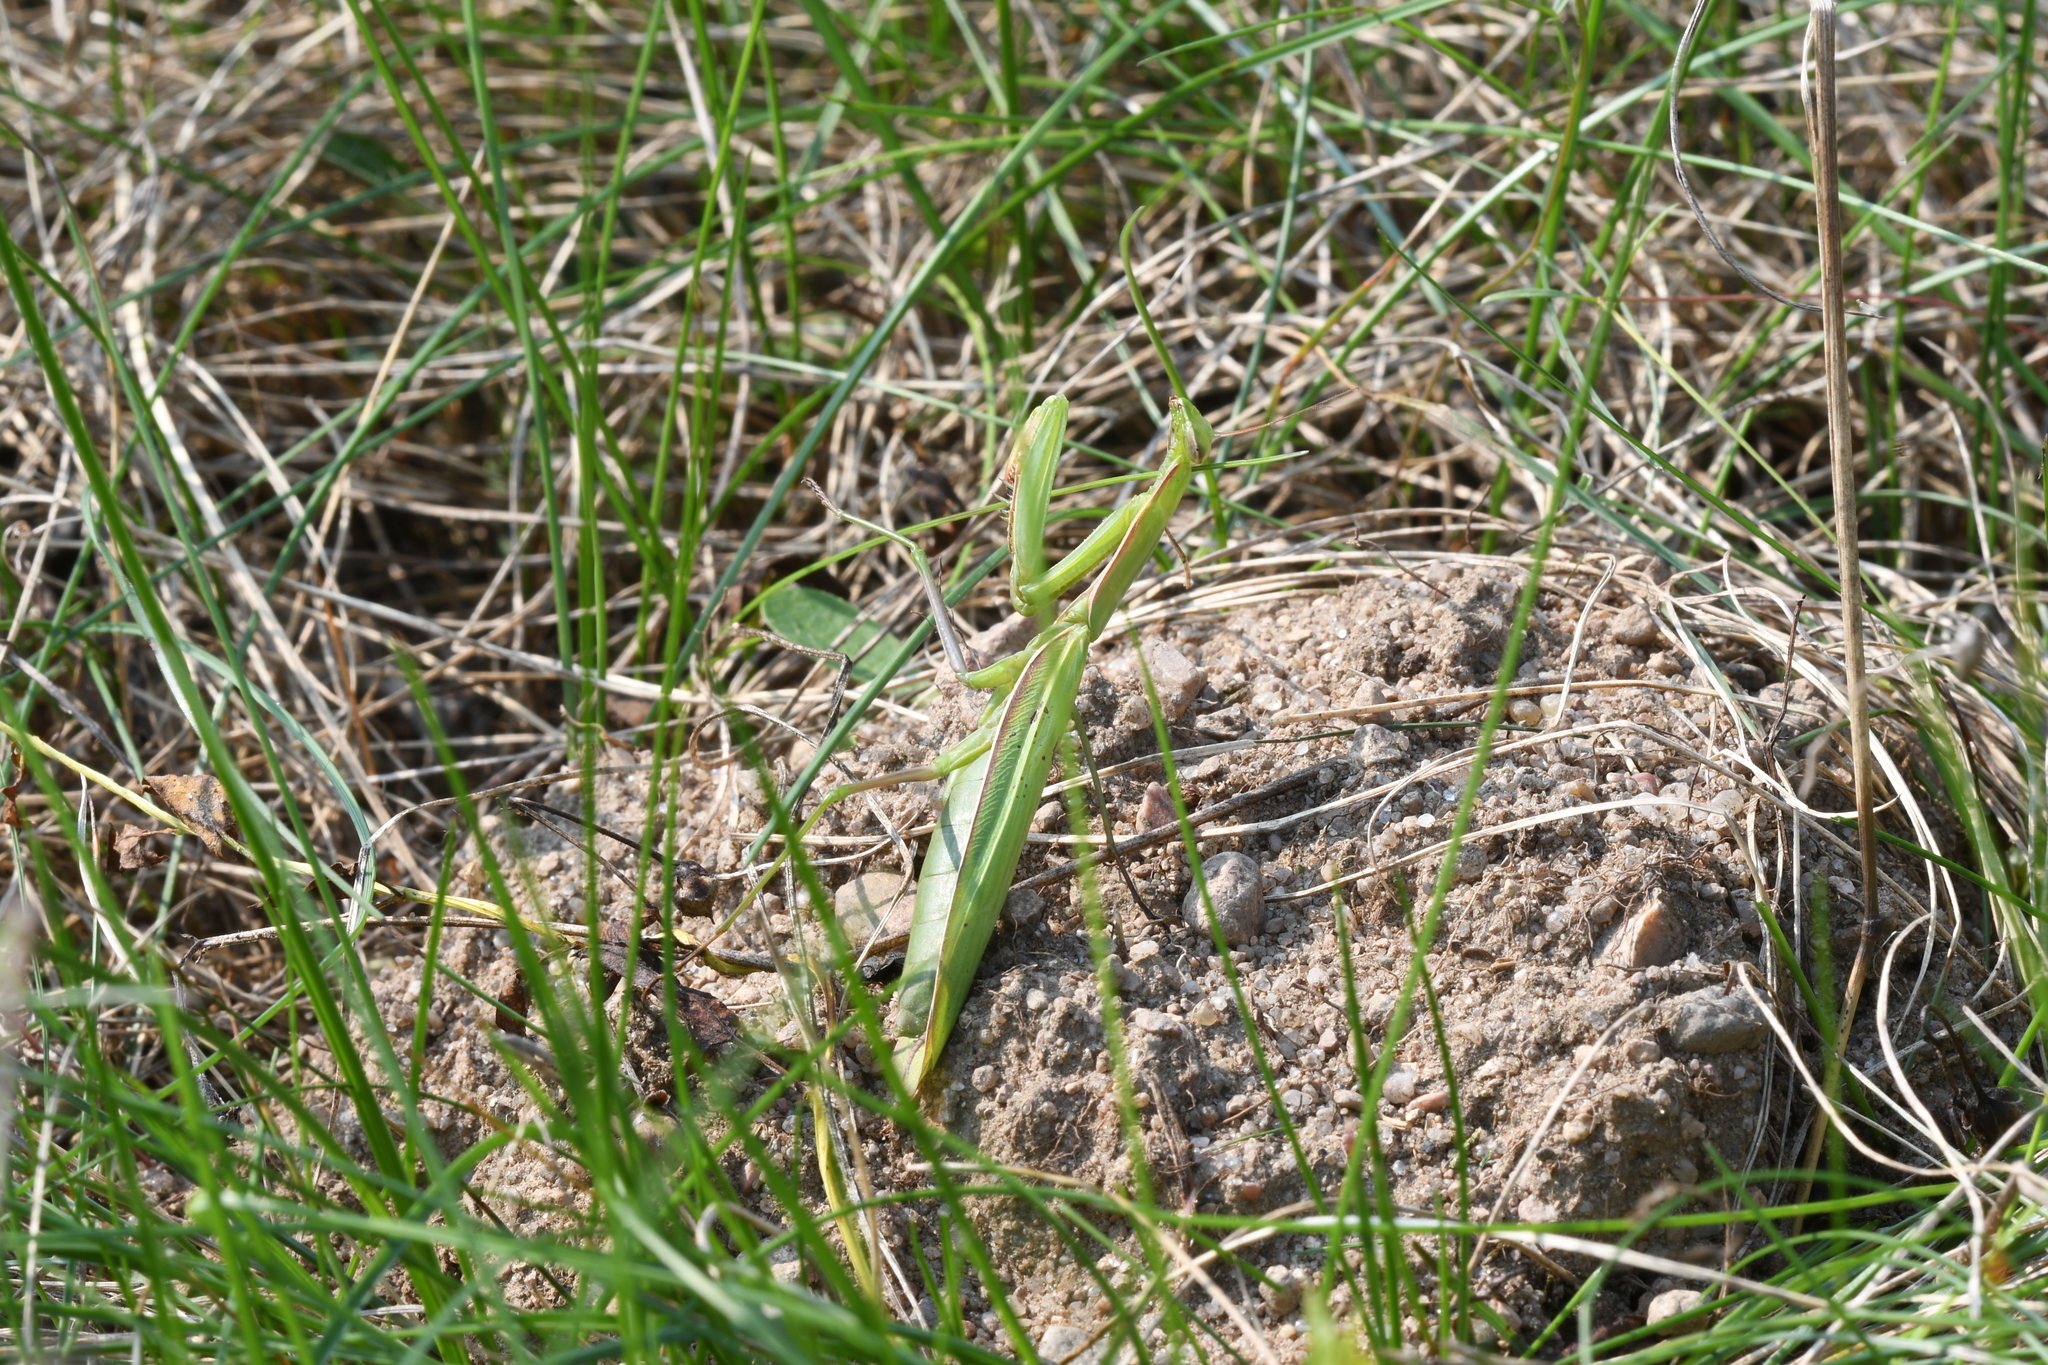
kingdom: Animalia
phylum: Arthropoda
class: Insecta
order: Mantodea
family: Mantidae
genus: Mantis
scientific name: Mantis religiosa
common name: Praying mantis
